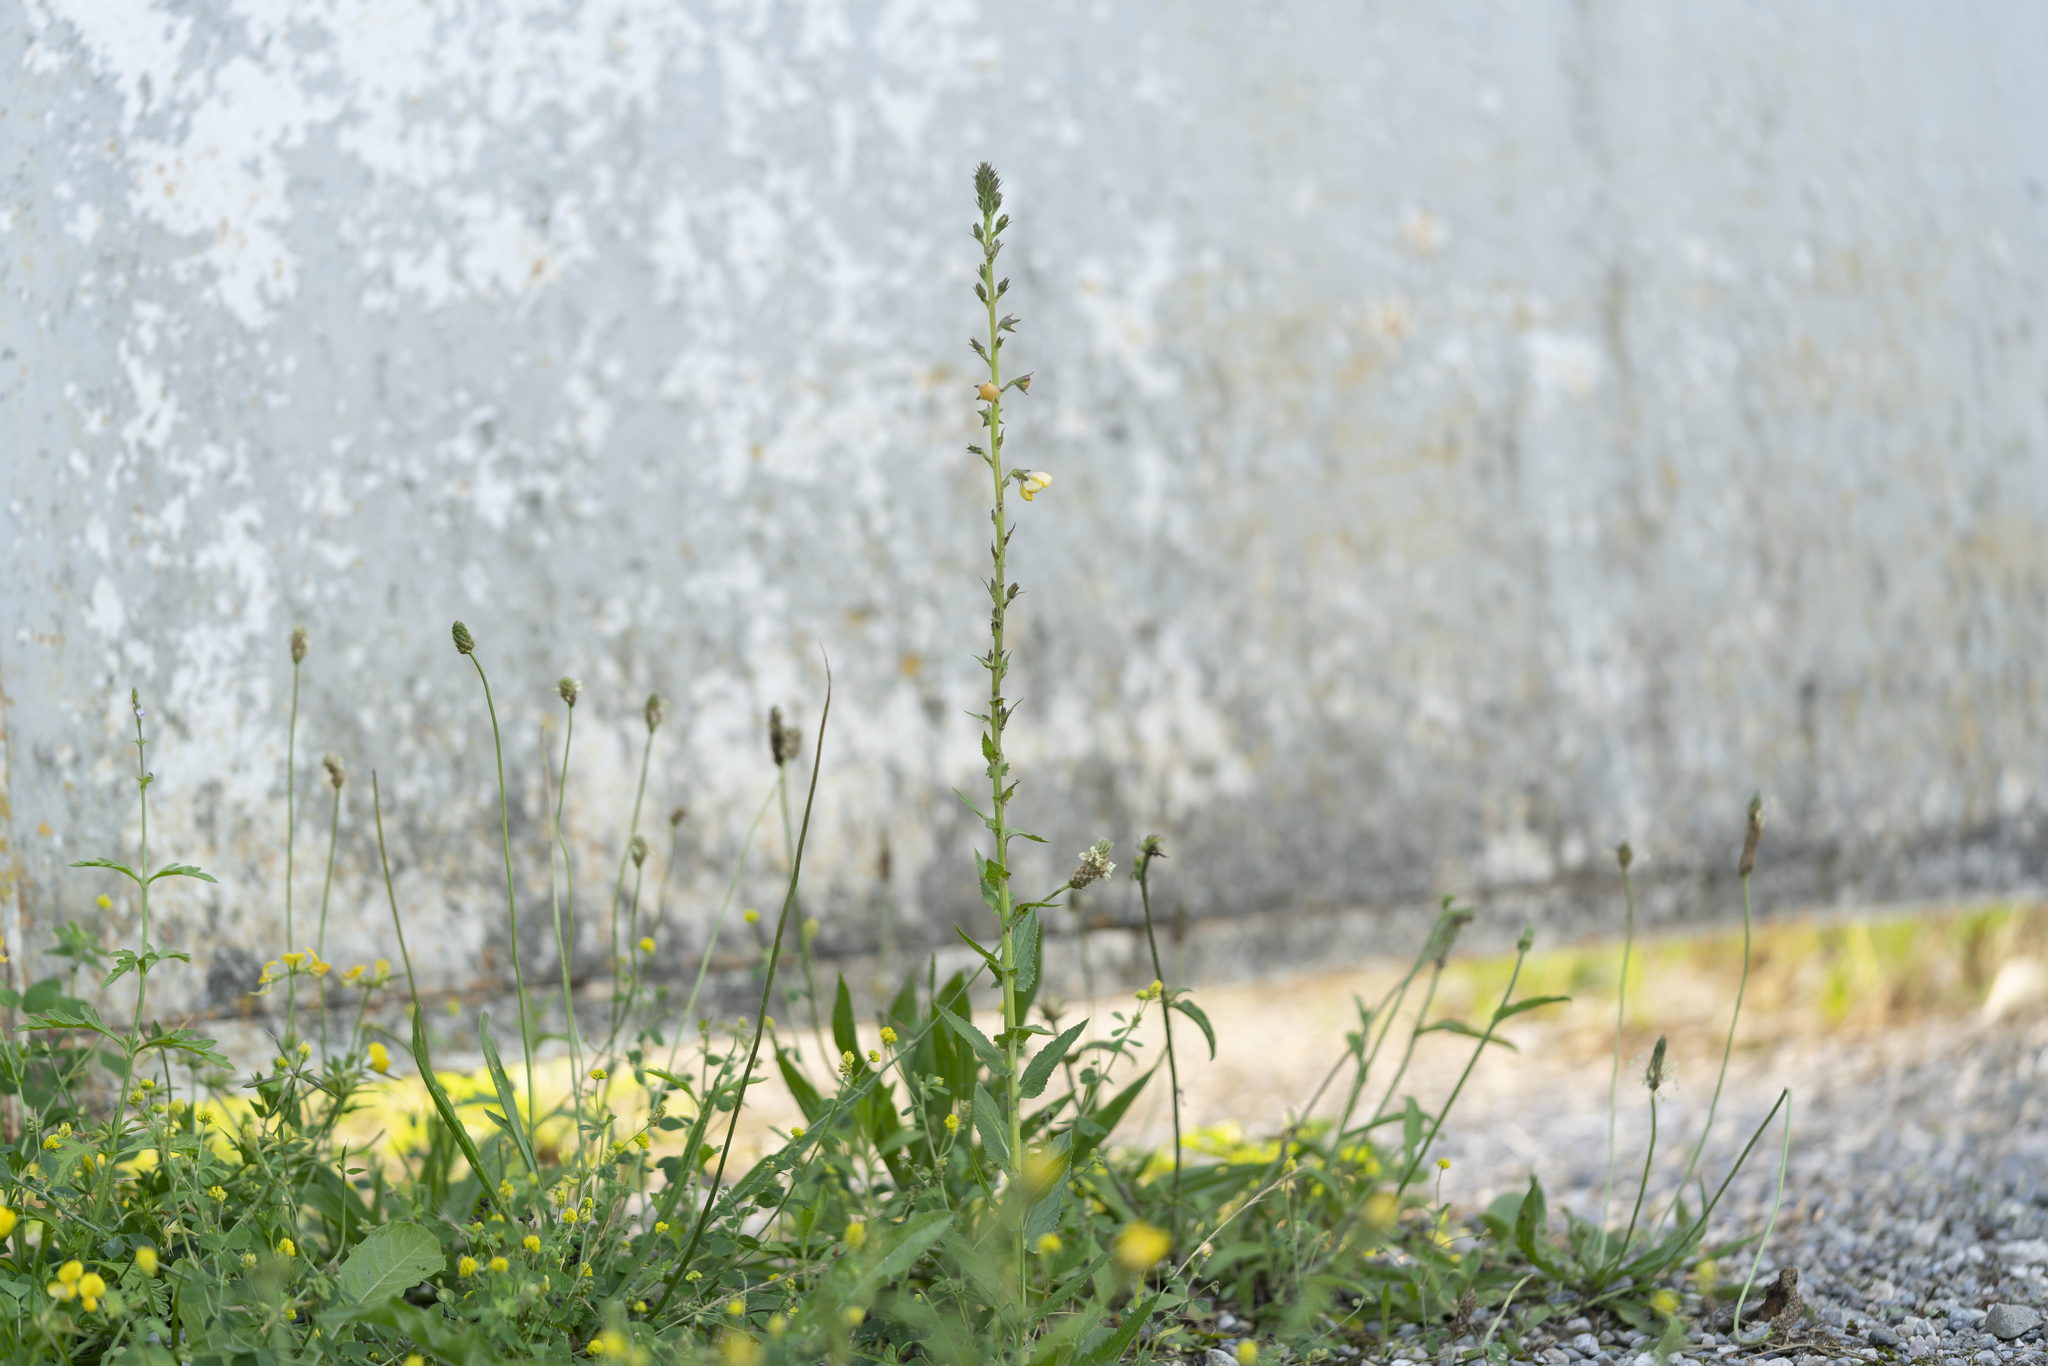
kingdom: Plantae
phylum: Tracheophyta
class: Magnoliopsida
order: Lamiales
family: Scrophulariaceae
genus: Verbascum
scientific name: Verbascum blattaria
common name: Moth mullein
